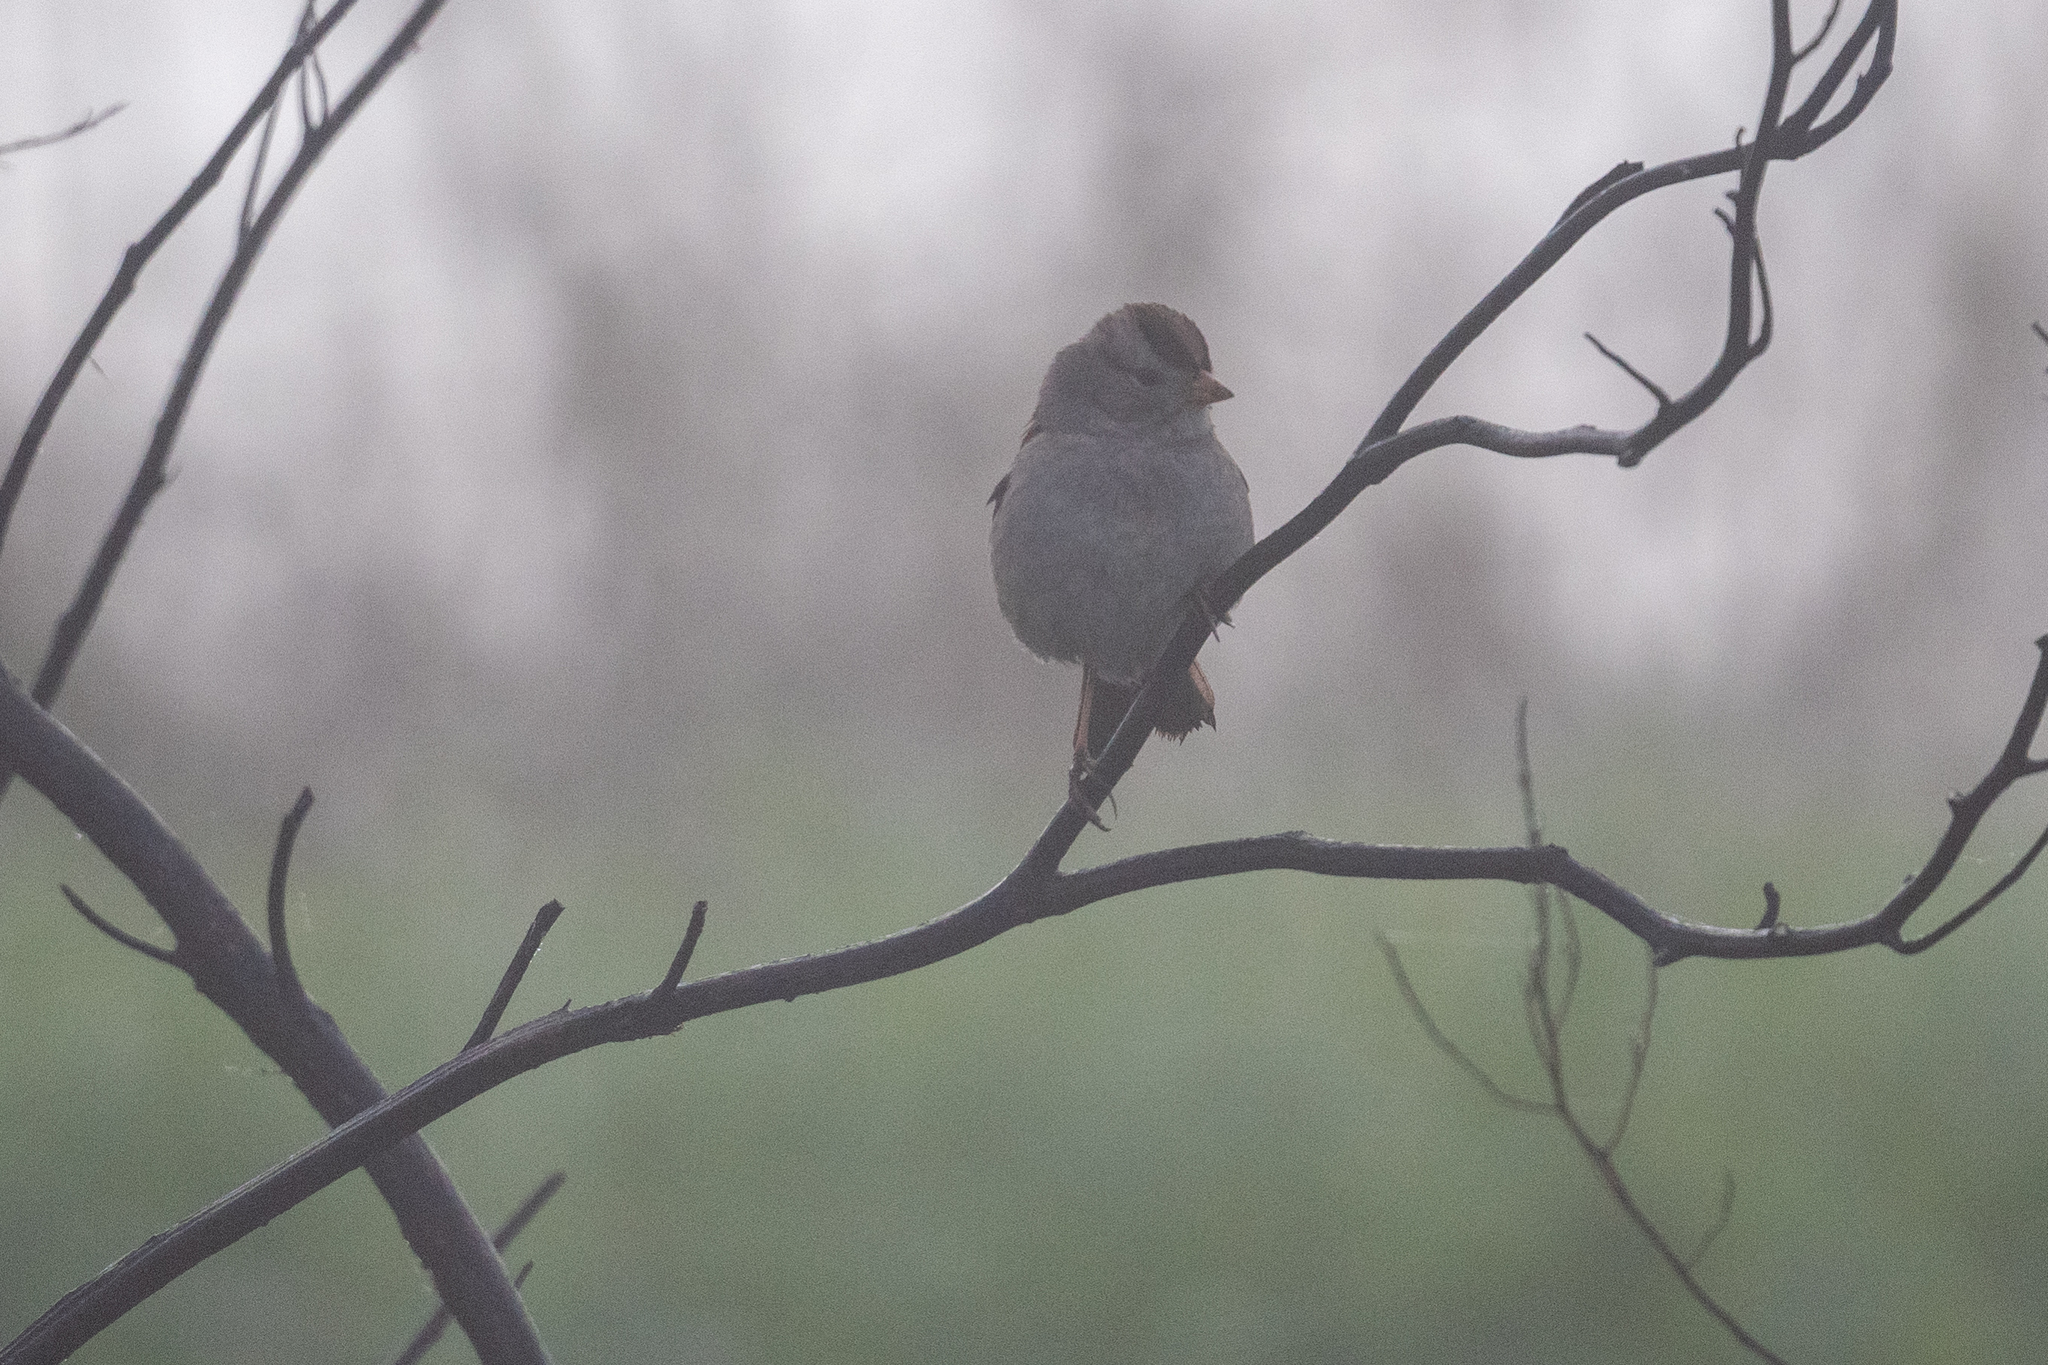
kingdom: Animalia
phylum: Chordata
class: Aves
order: Passeriformes
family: Passerellidae
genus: Zonotrichia
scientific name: Zonotrichia leucophrys
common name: White-crowned sparrow
